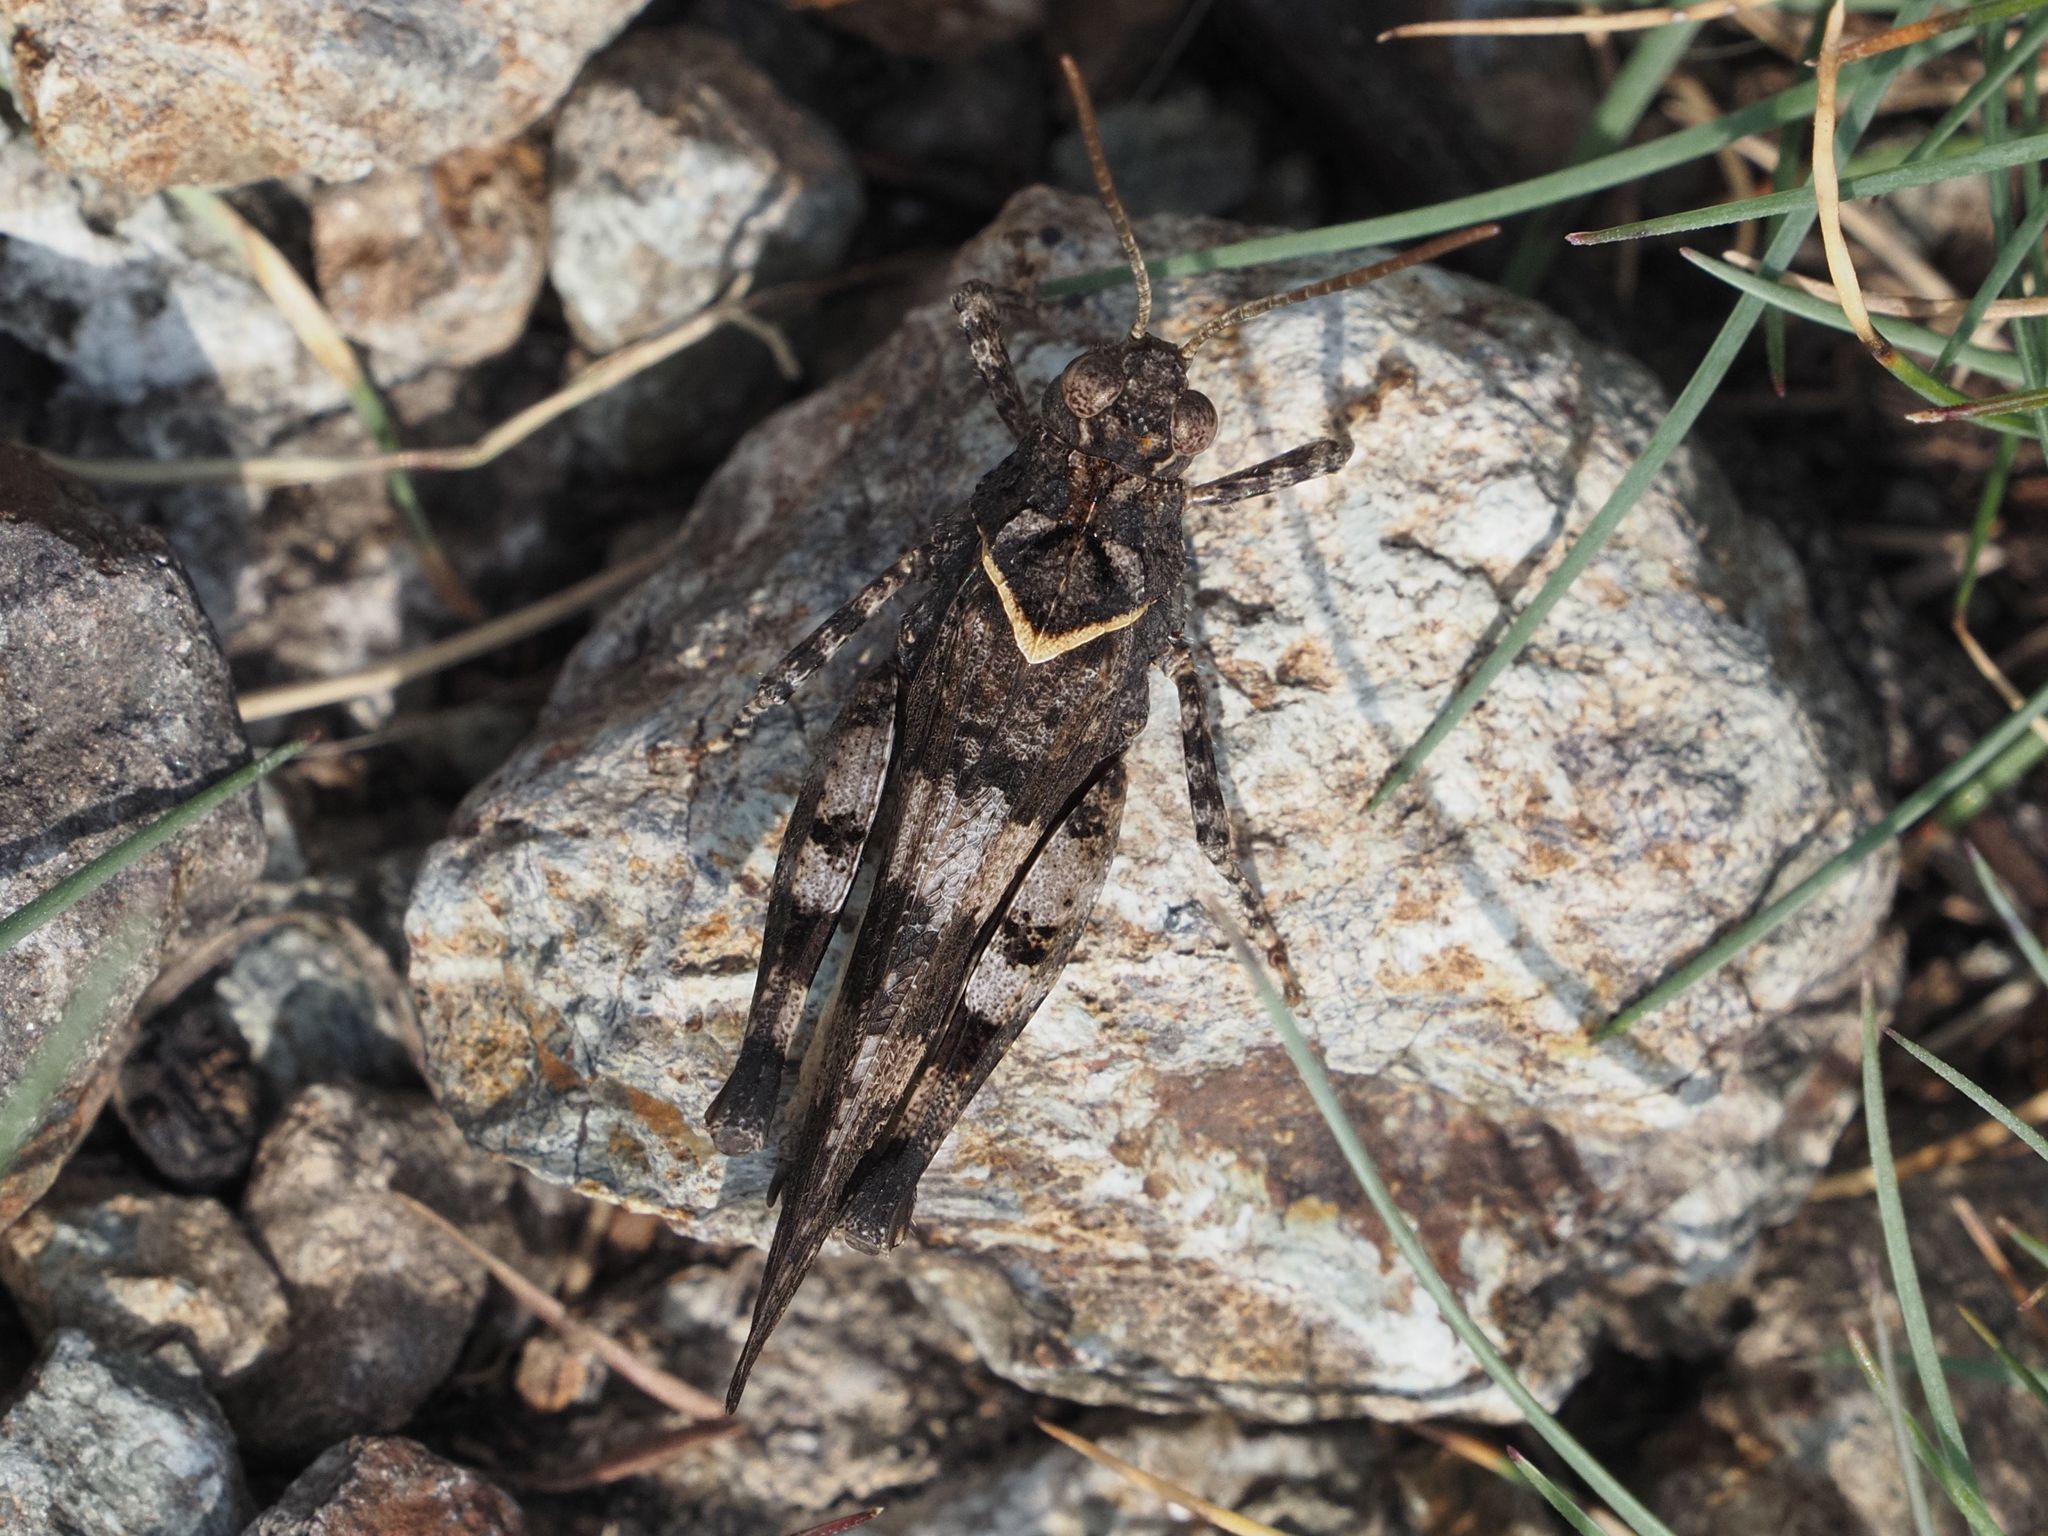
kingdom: Animalia
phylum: Arthropoda
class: Insecta
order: Orthoptera
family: Acrididae
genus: Oedipoda
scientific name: Oedipoda caerulescens
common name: Blue-winged grasshopper
